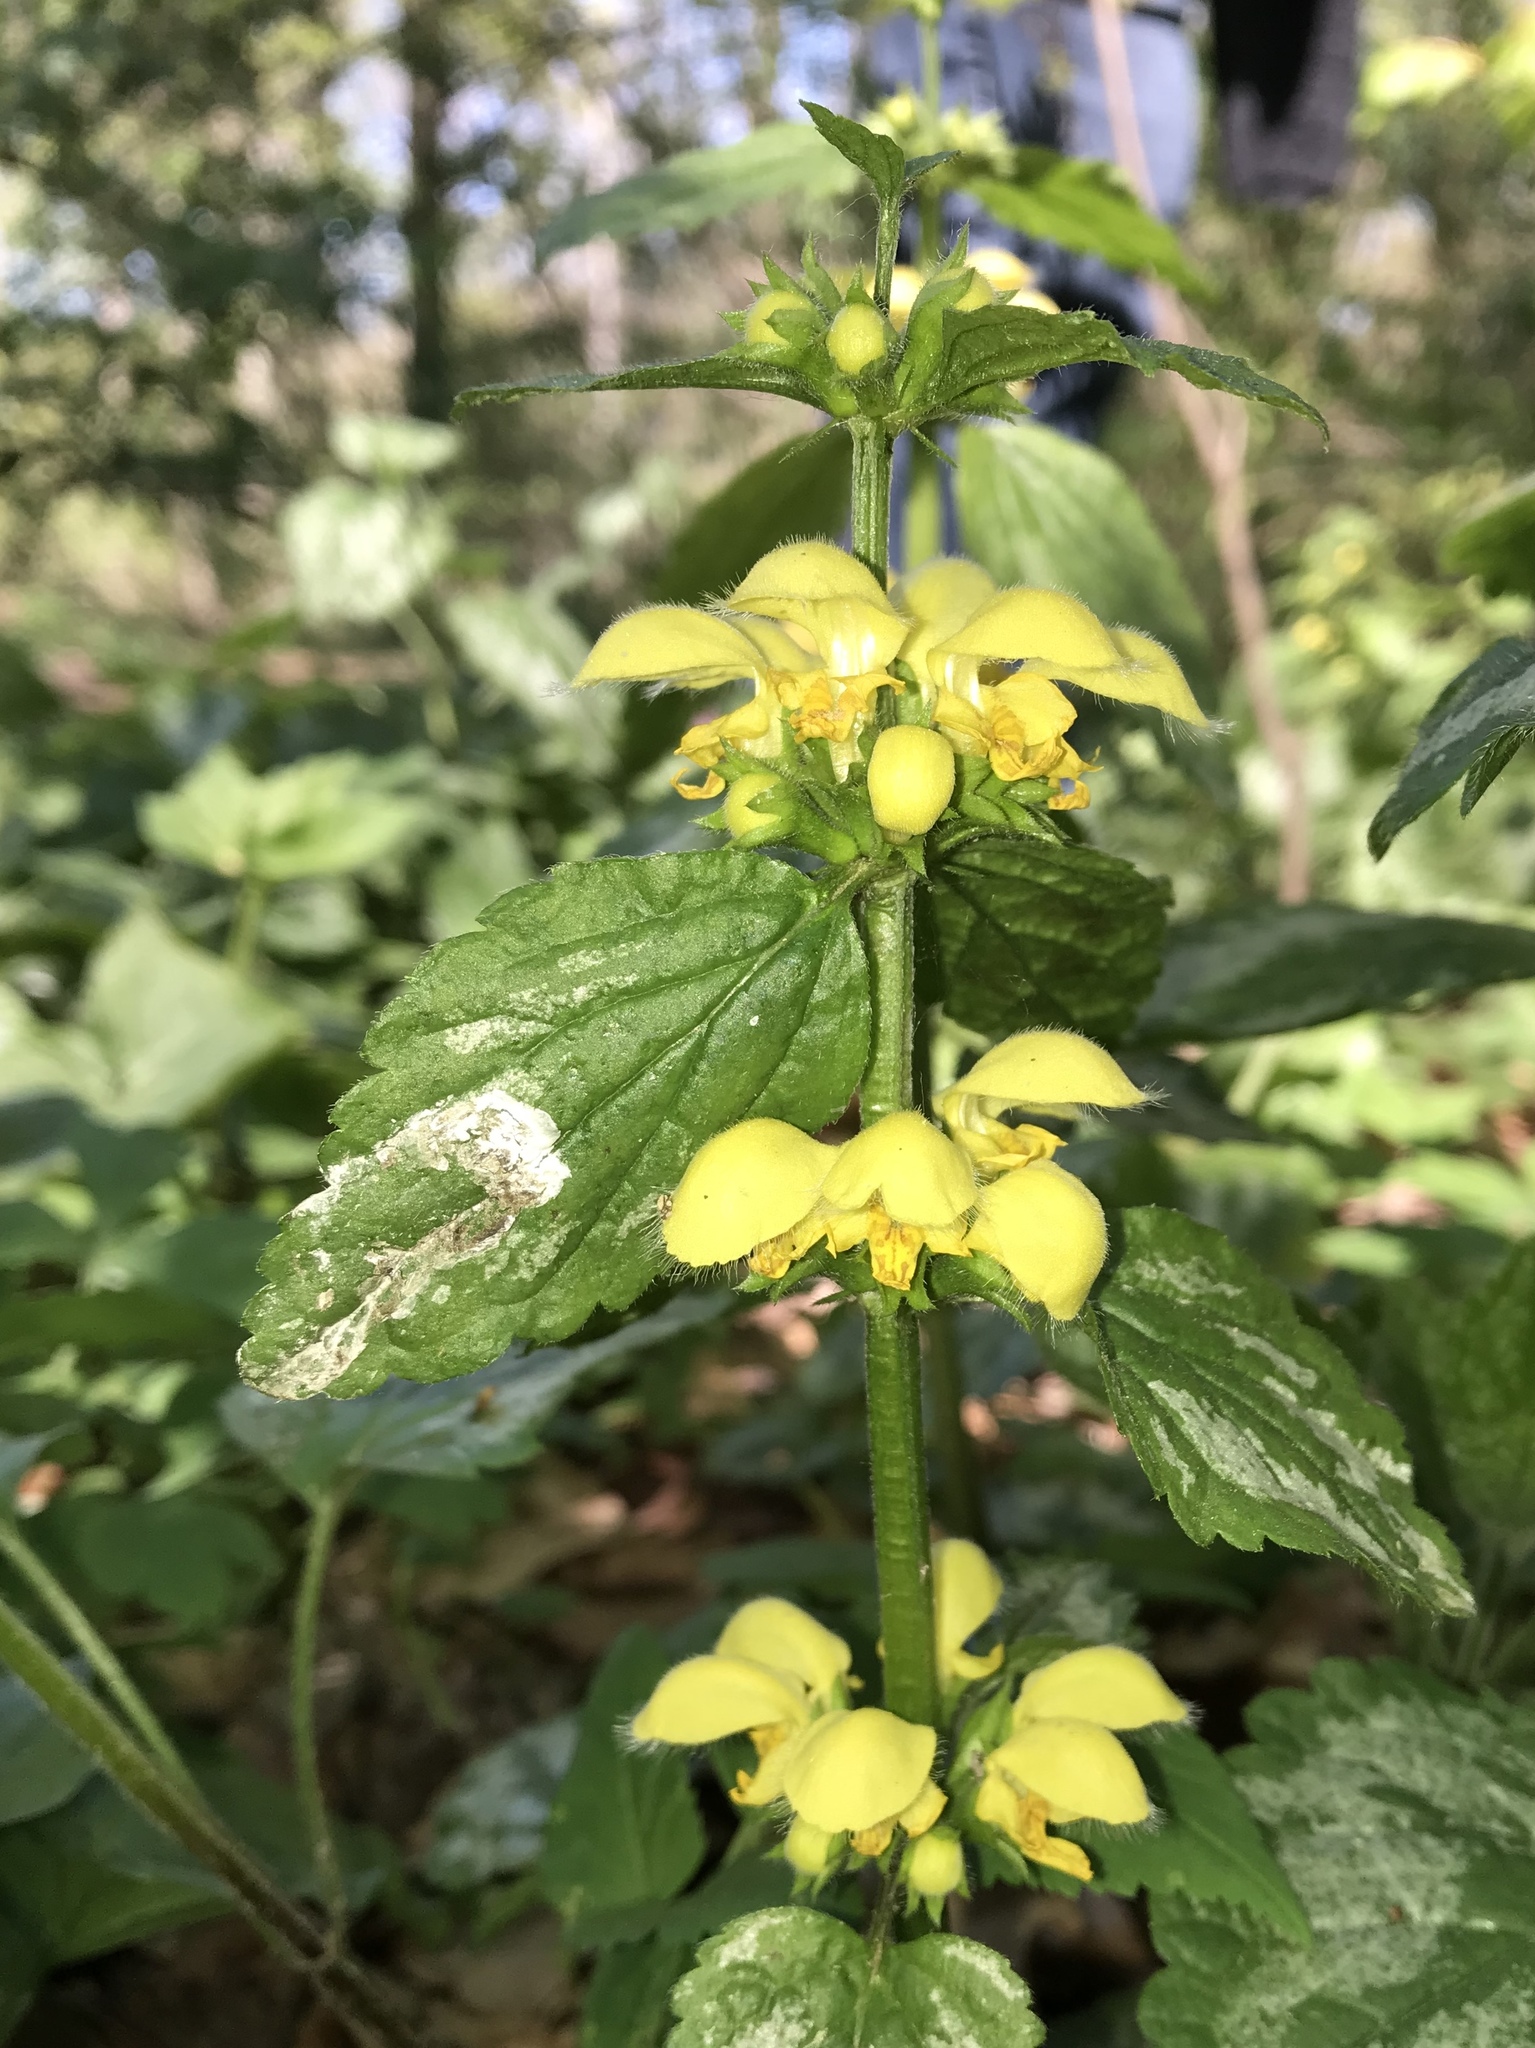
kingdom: Plantae
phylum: Tracheophyta
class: Magnoliopsida
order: Lamiales
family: Lamiaceae
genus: Lamium
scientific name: Lamium galeobdolon
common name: Yellow archangel
